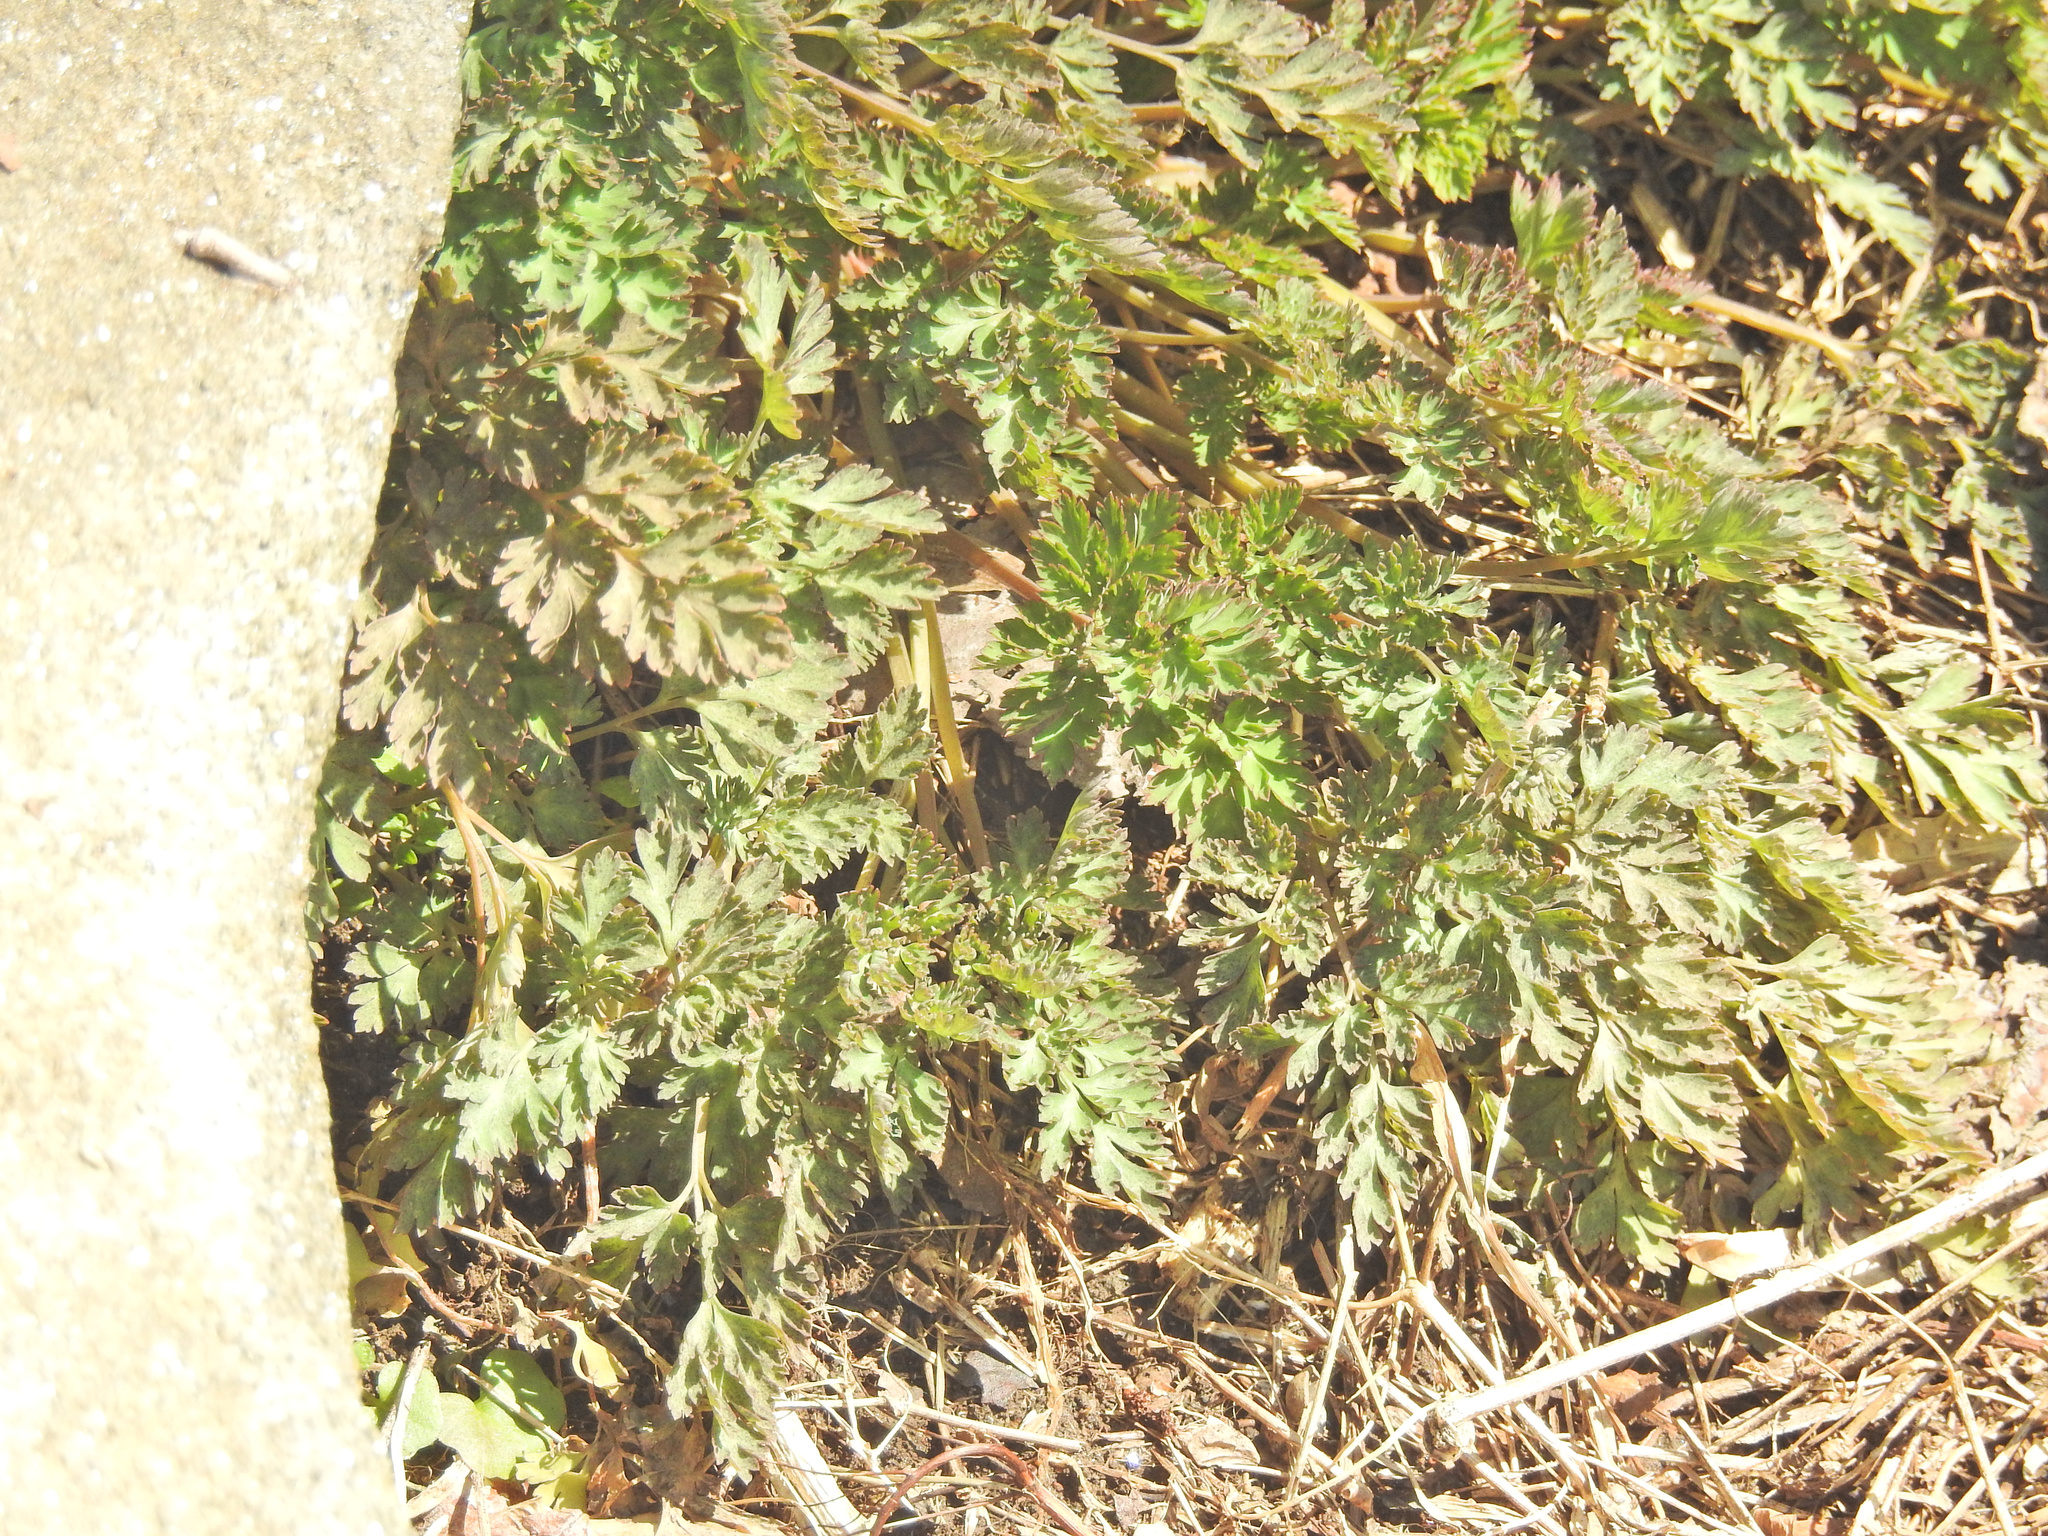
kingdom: Plantae
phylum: Tracheophyta
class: Magnoliopsida
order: Asterales
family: Asteraceae
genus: Artemisia
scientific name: Artemisia vulgaris
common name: Mugwort
